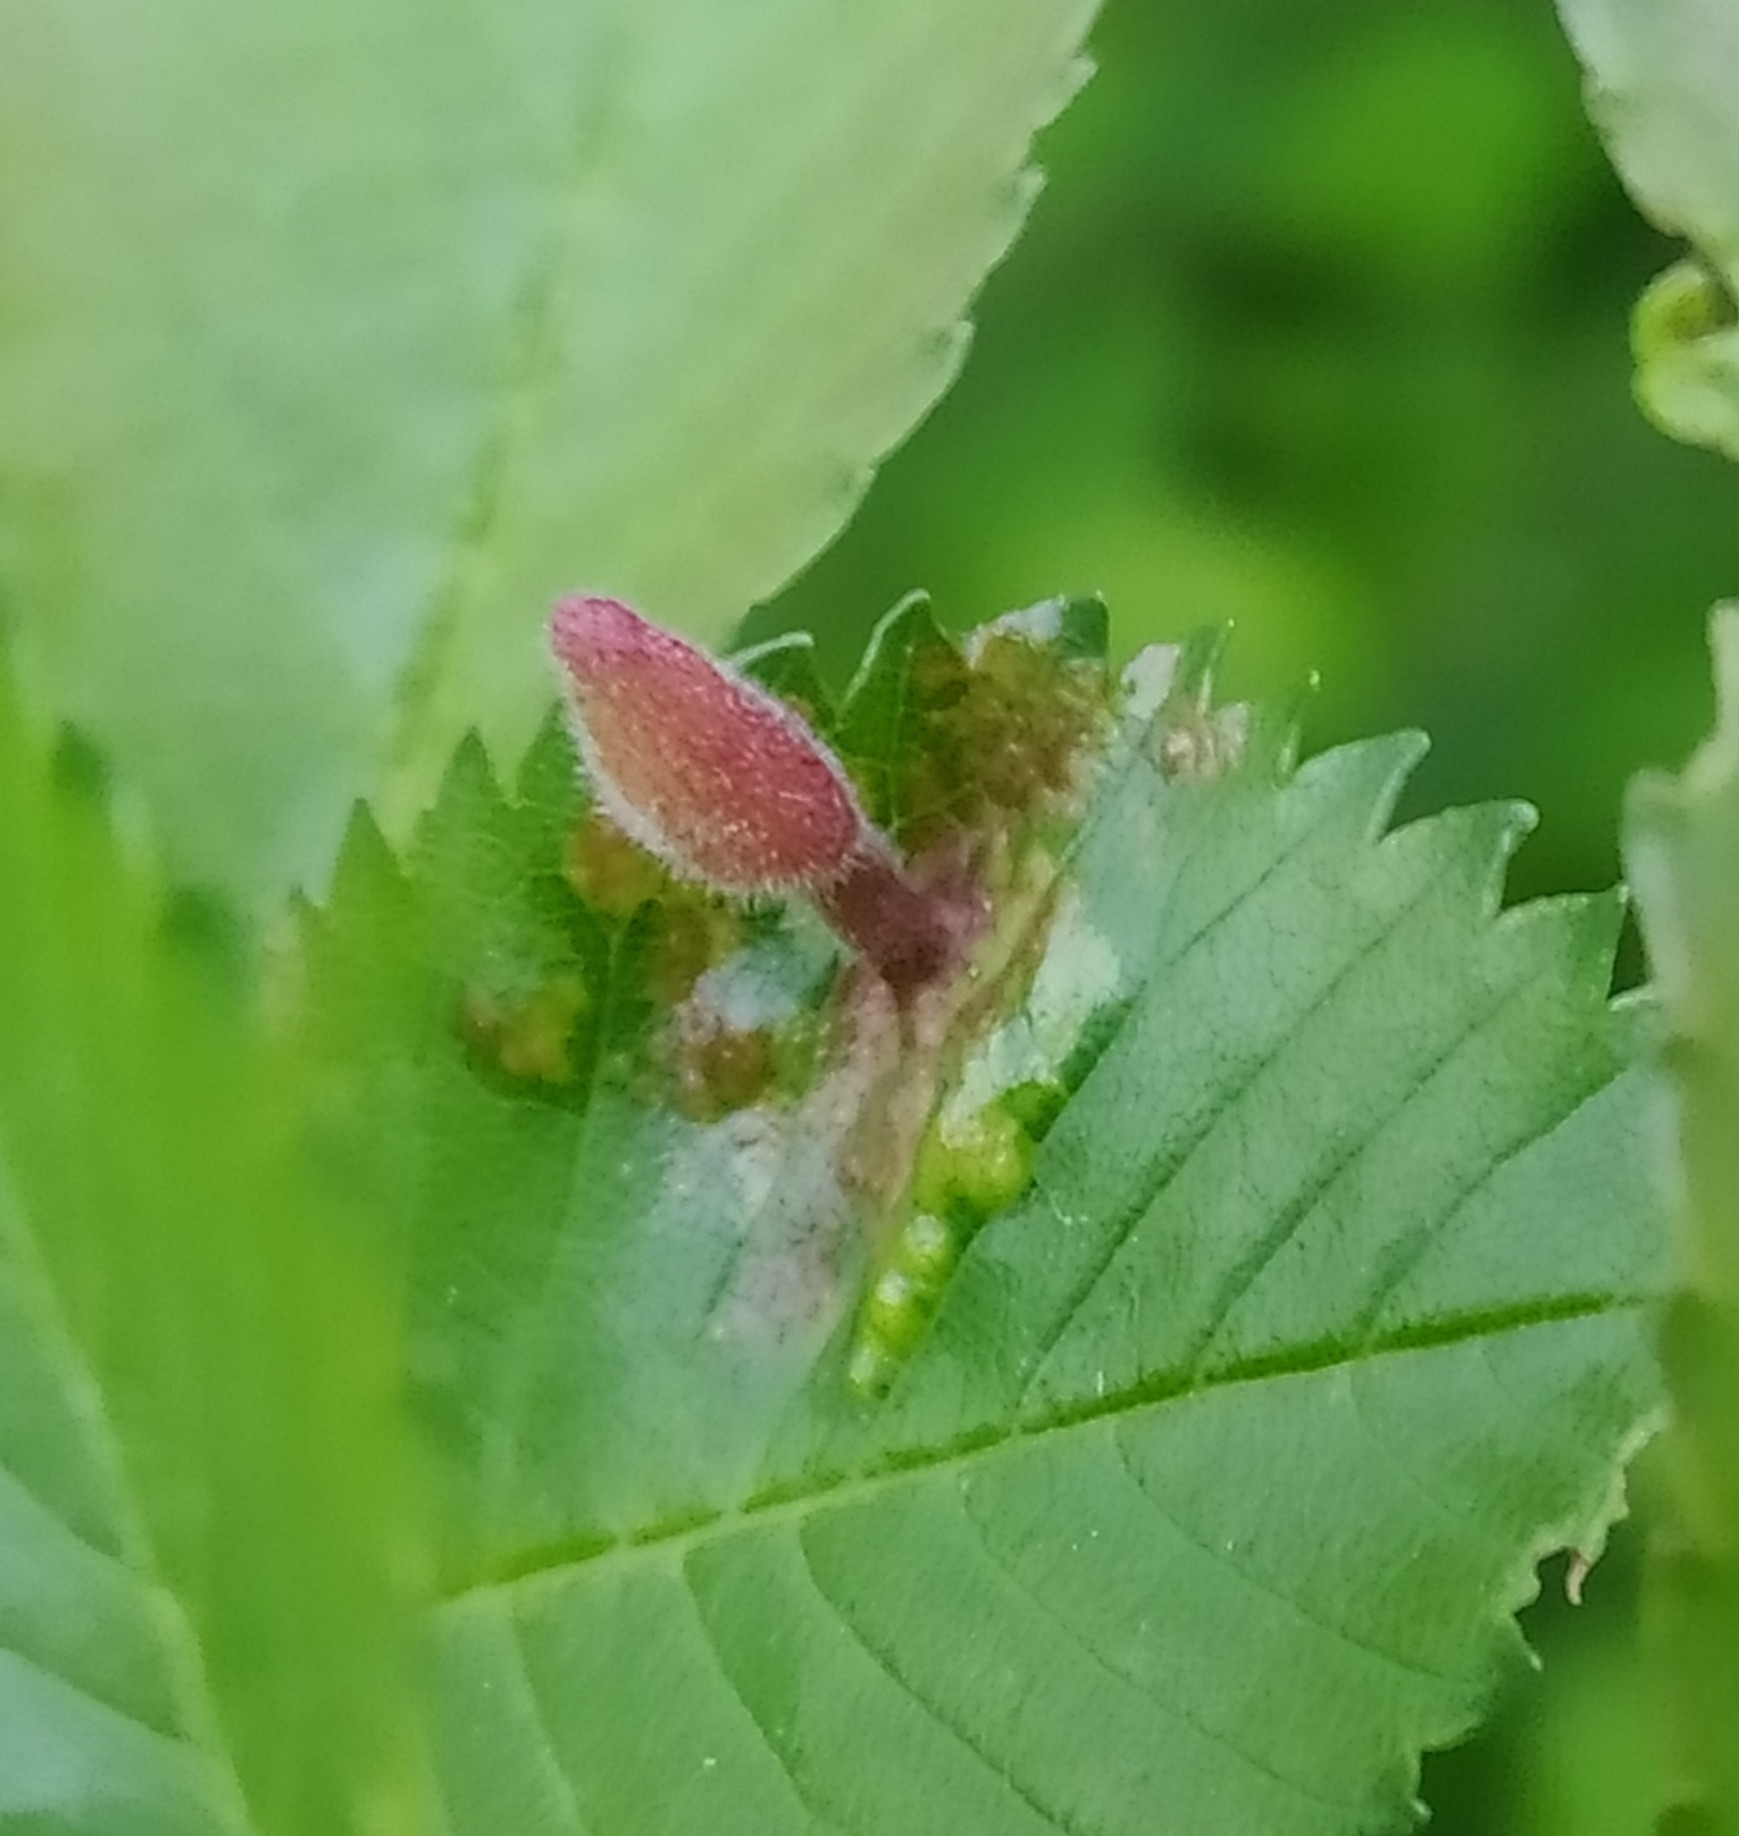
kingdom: Animalia
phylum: Arthropoda
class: Insecta
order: Hemiptera
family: Aphididae
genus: Tetraneura
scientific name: Tetraneura nigriabdominalis
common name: Aphid
